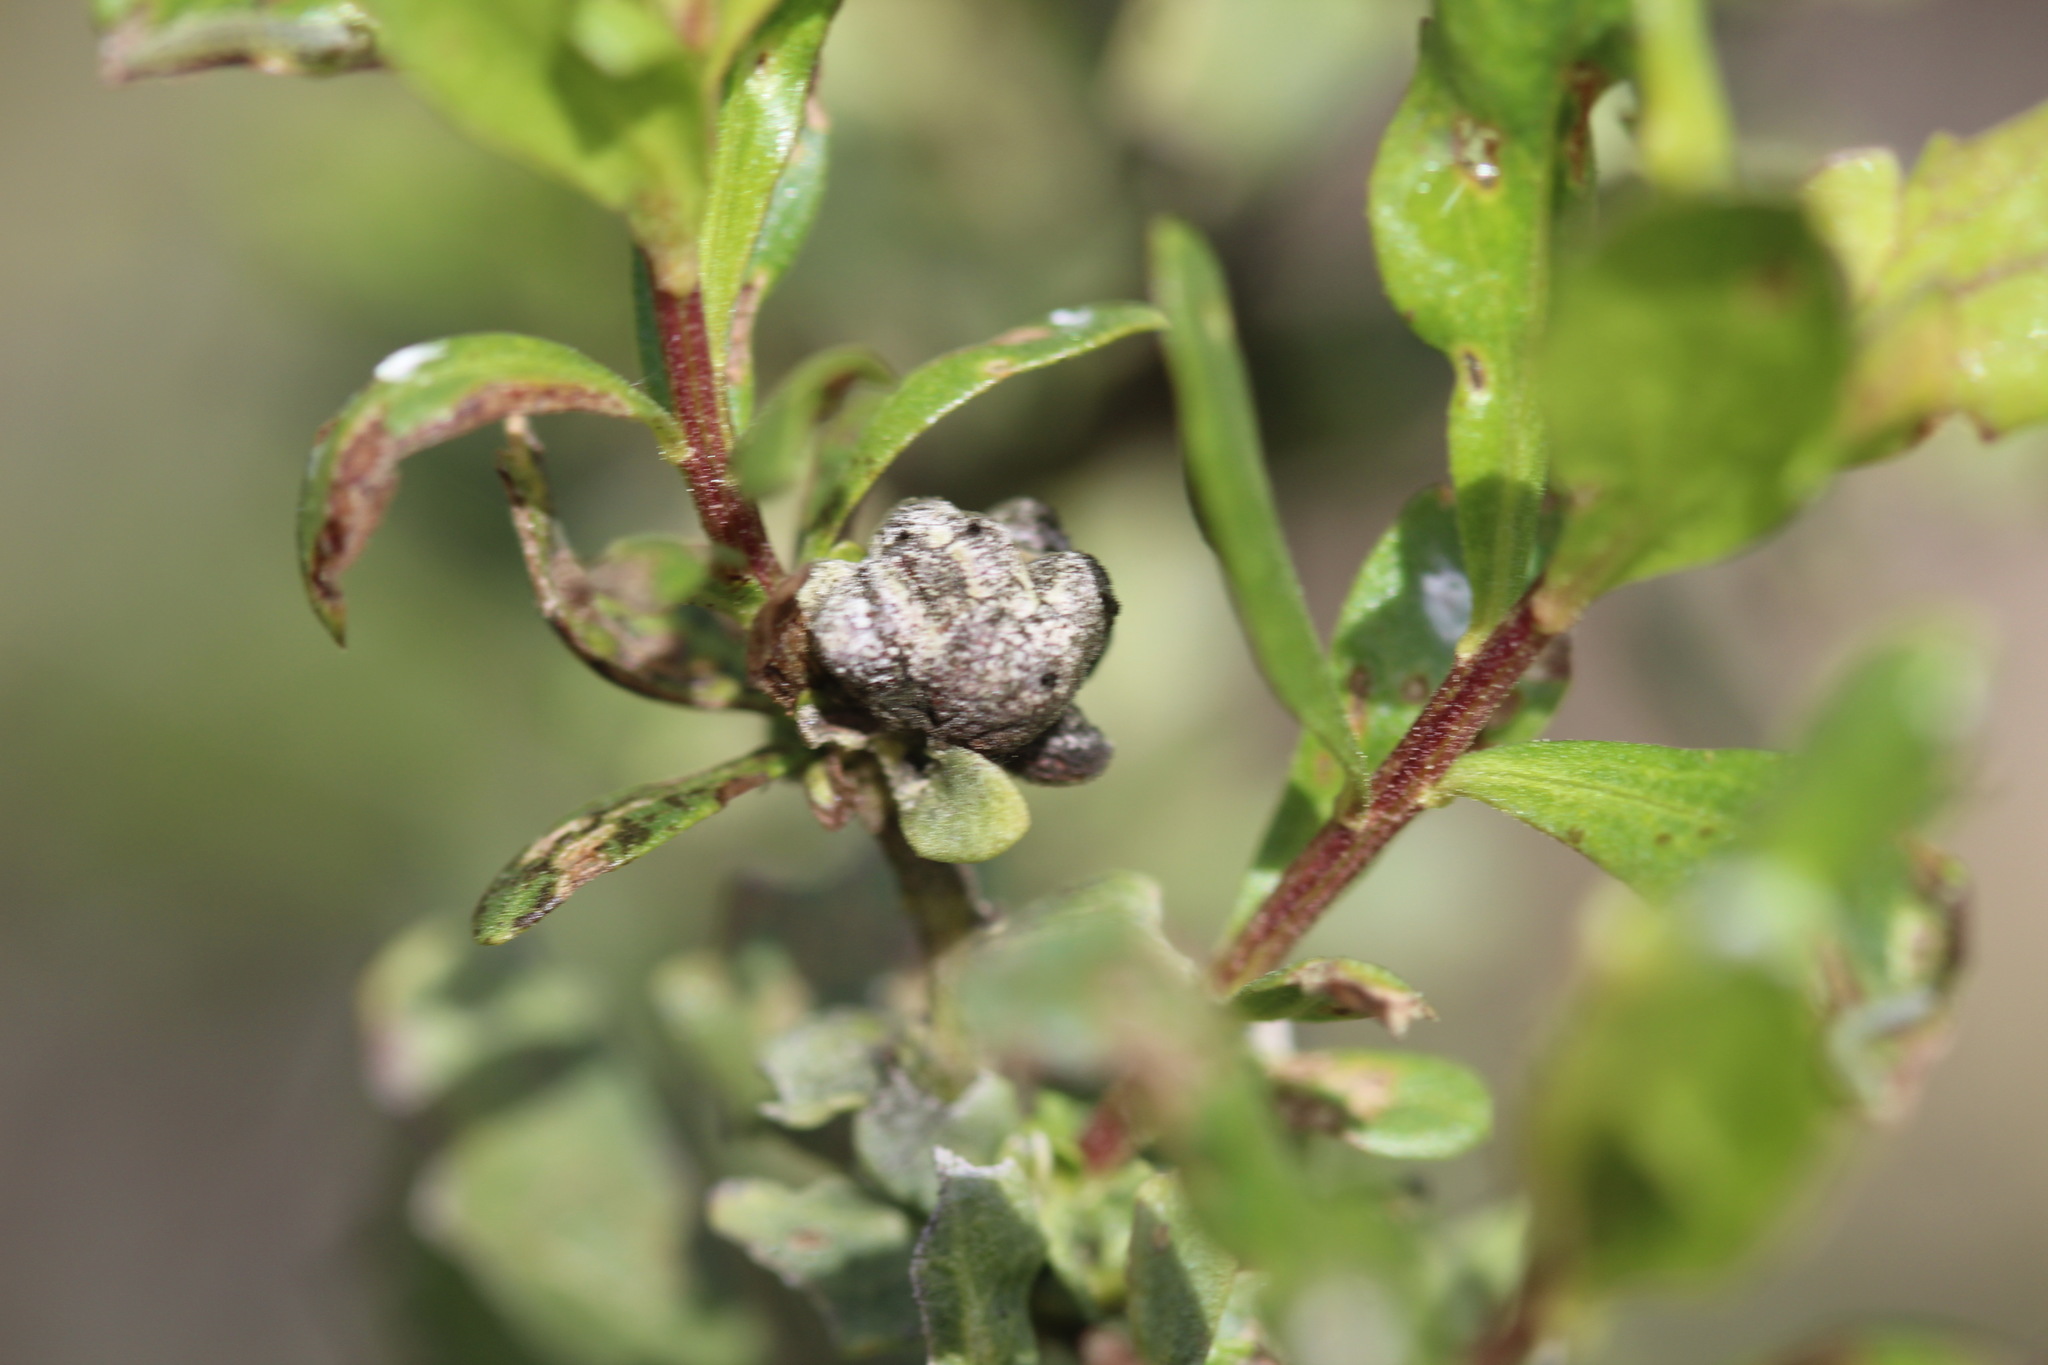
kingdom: Animalia
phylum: Arthropoda
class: Insecta
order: Diptera
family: Cecidomyiidae
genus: Rhopalomyia
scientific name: Rhopalomyia californica
